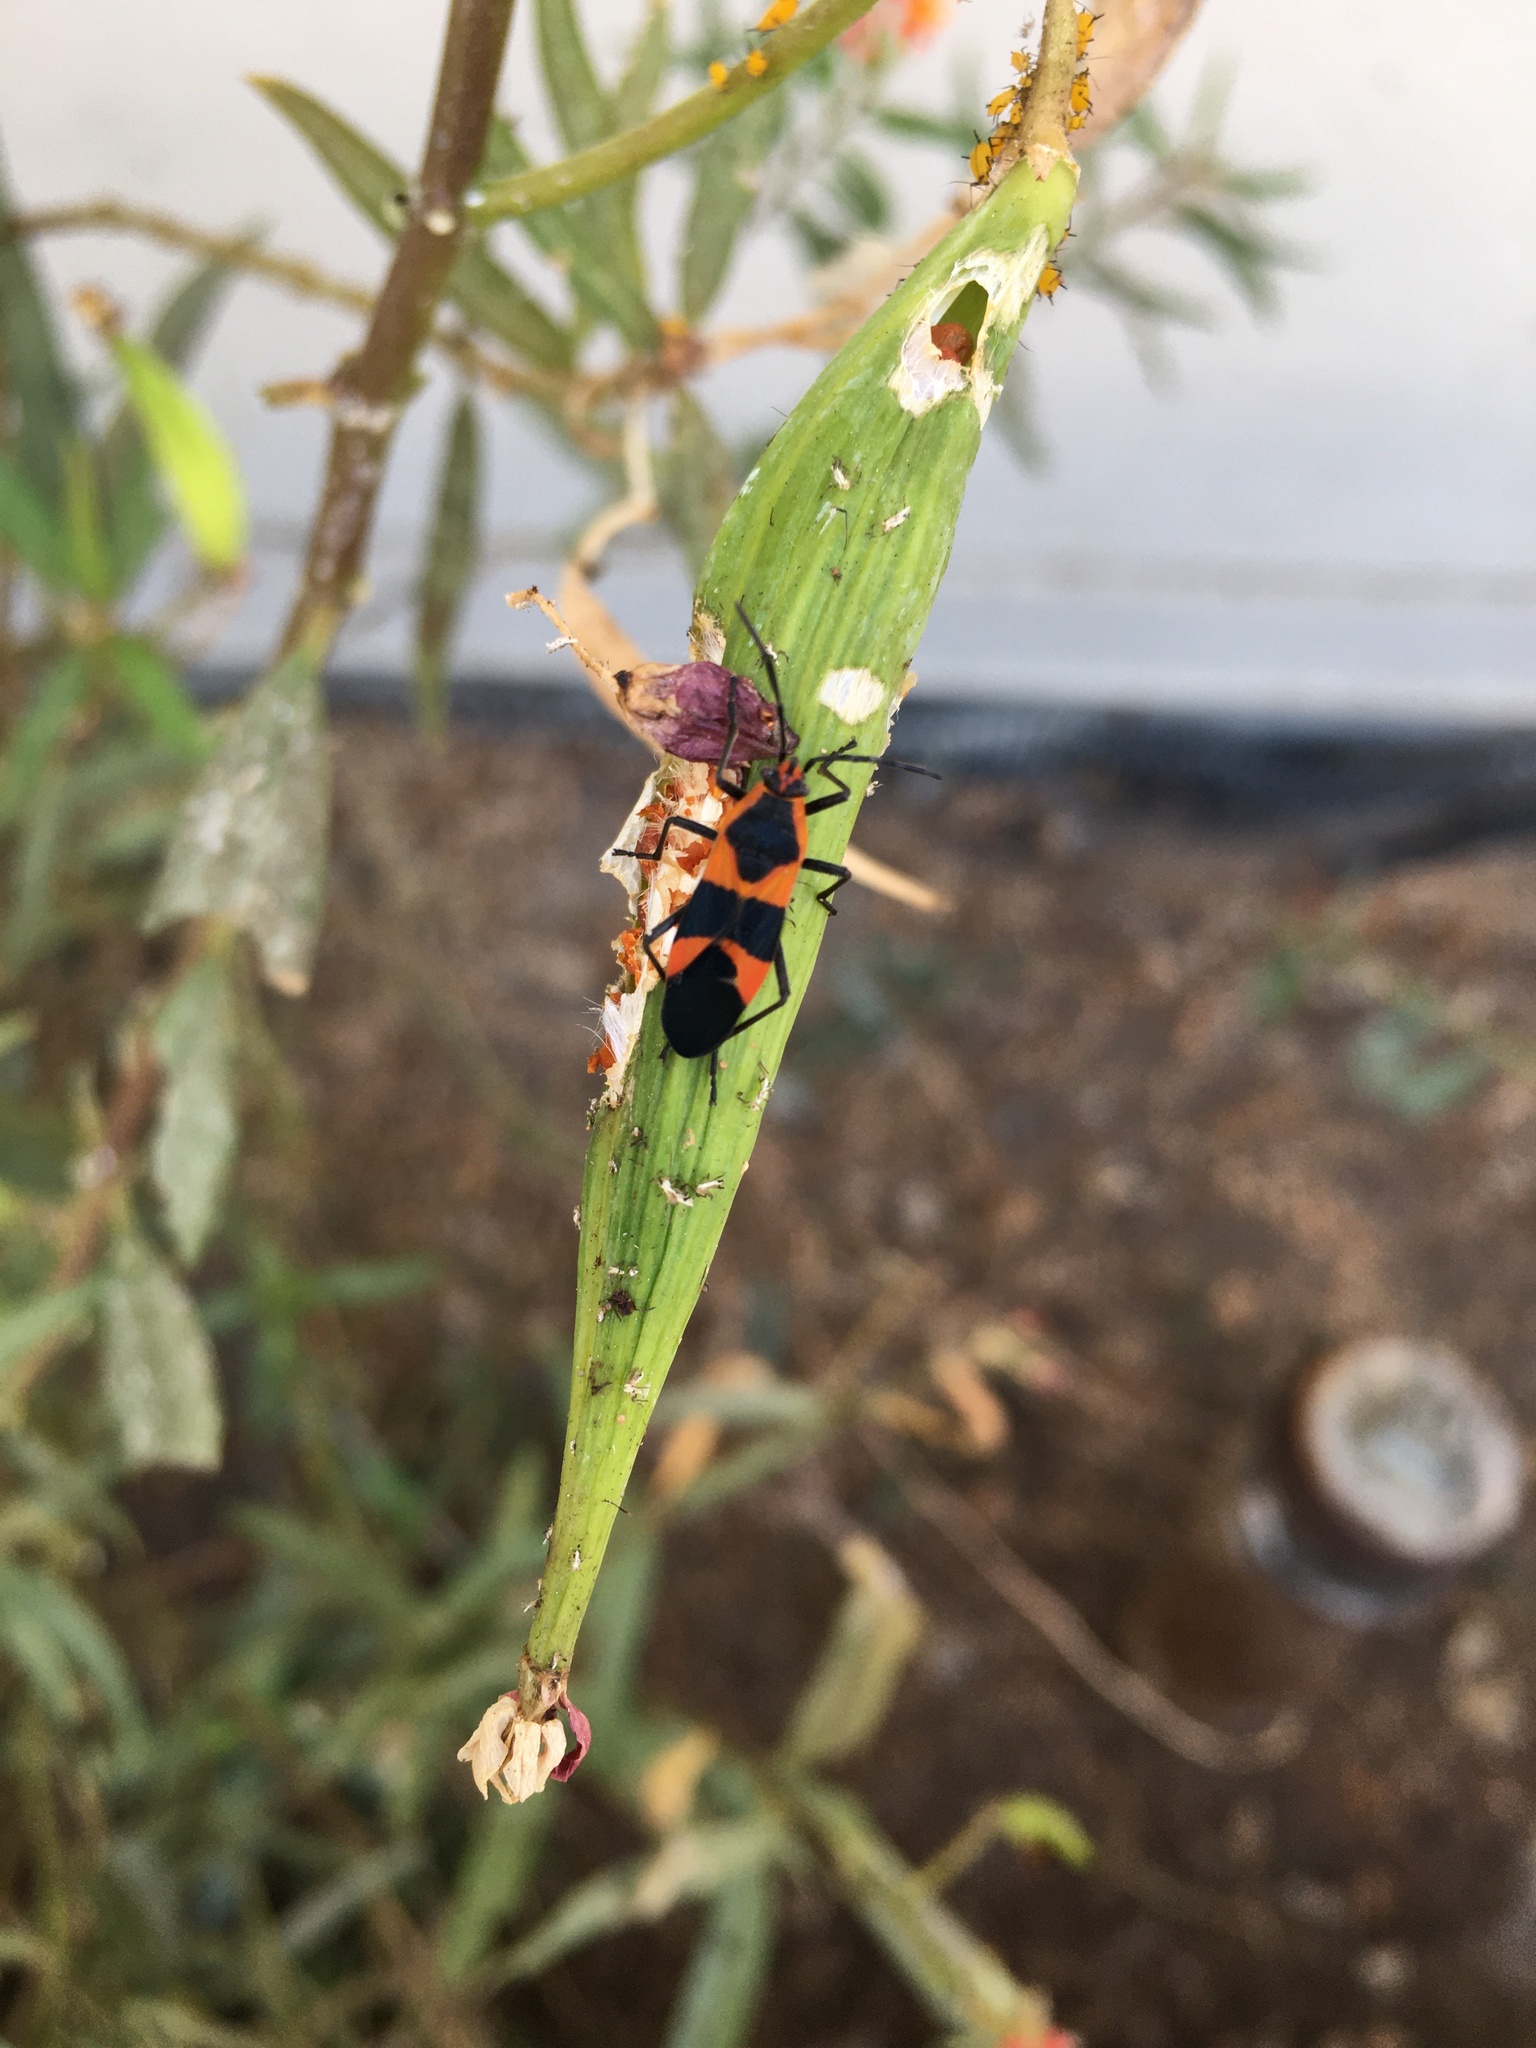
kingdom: Animalia
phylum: Arthropoda
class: Insecta
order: Hemiptera
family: Lygaeidae
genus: Oncopeltus
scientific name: Oncopeltus fasciatus
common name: Large milkweed bug
